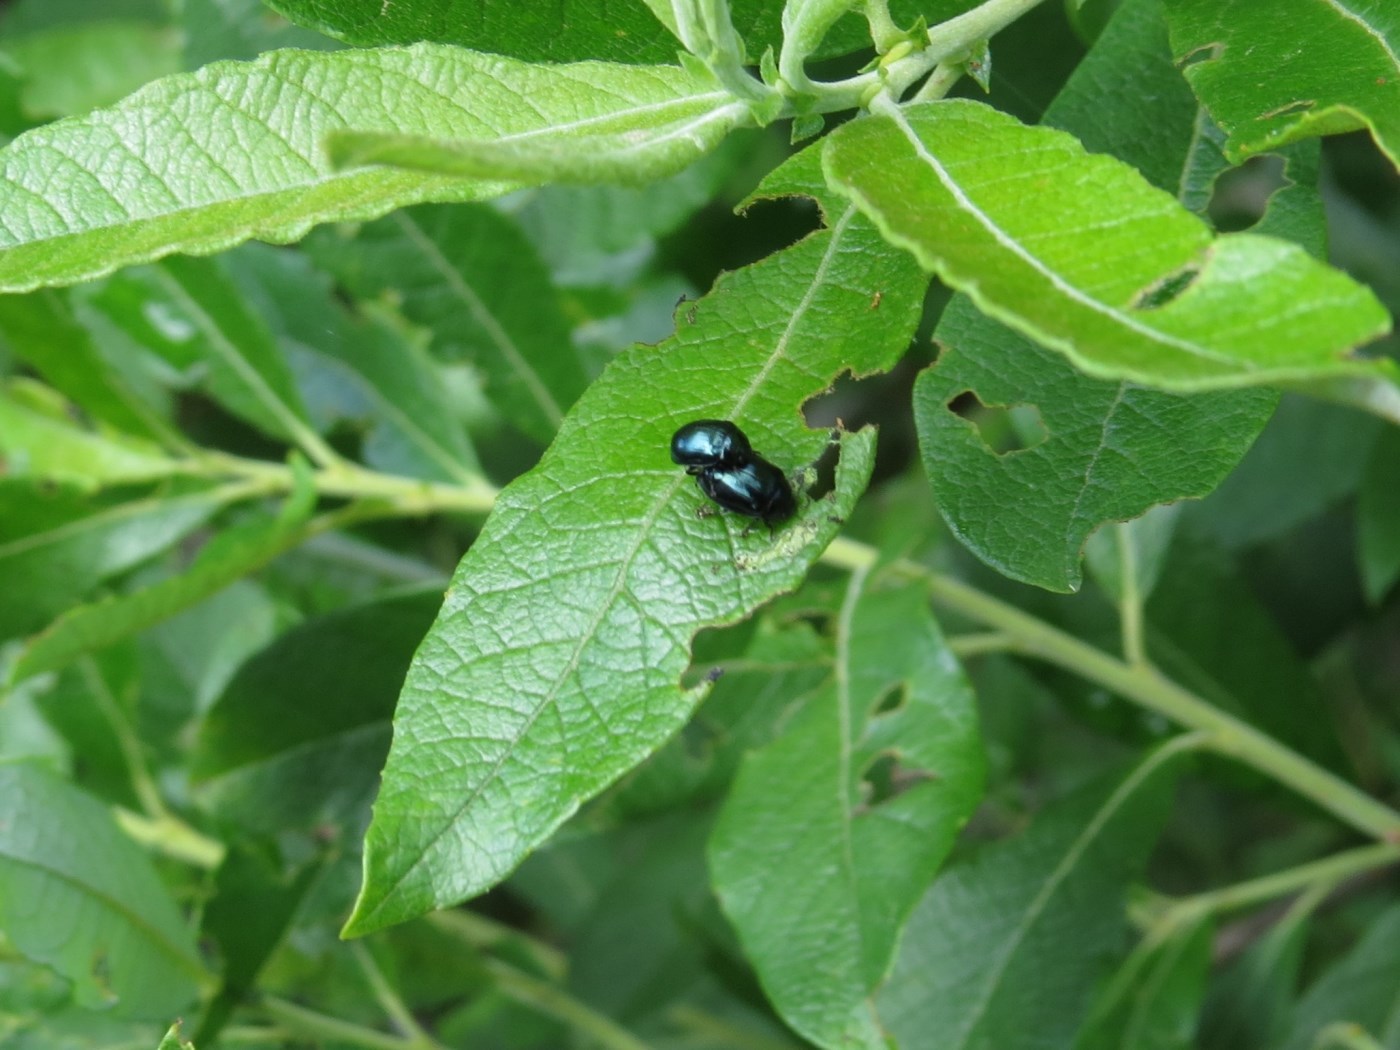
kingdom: Animalia
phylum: Arthropoda
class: Insecta
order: Coleoptera
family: Chrysomelidae
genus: Plagiodera
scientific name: Plagiodera versicolora
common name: Imported willow leaf beetle
